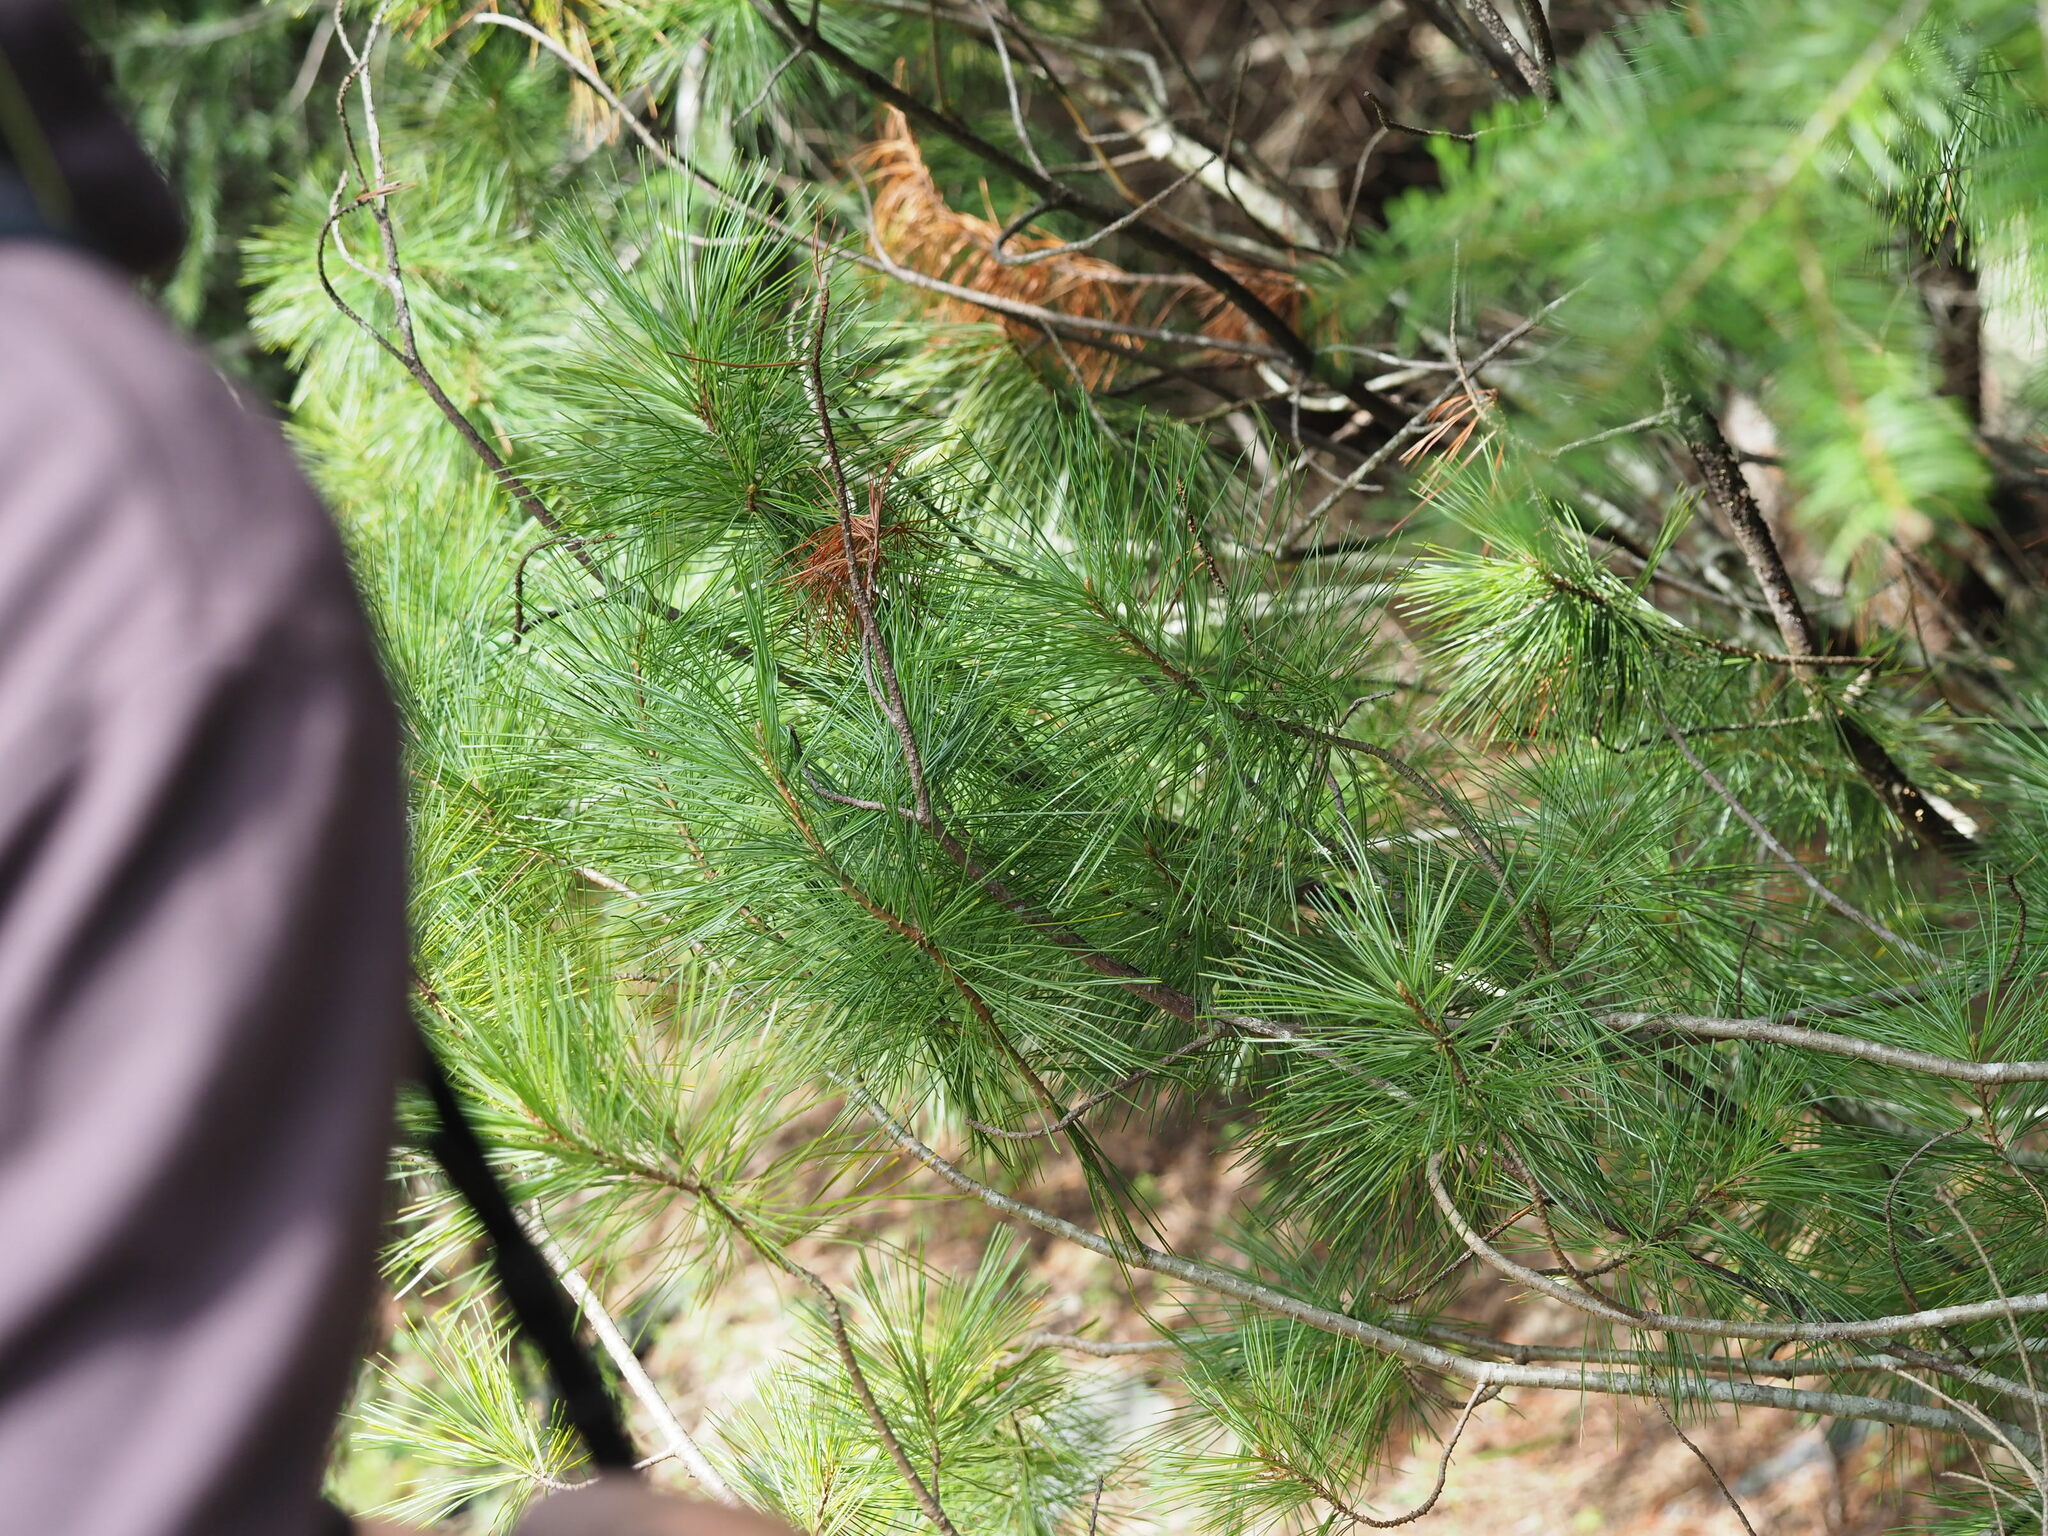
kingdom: Plantae
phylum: Tracheophyta
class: Pinopsida
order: Pinales
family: Pinaceae
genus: Pinus
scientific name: Pinus monticola
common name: Western white pine
